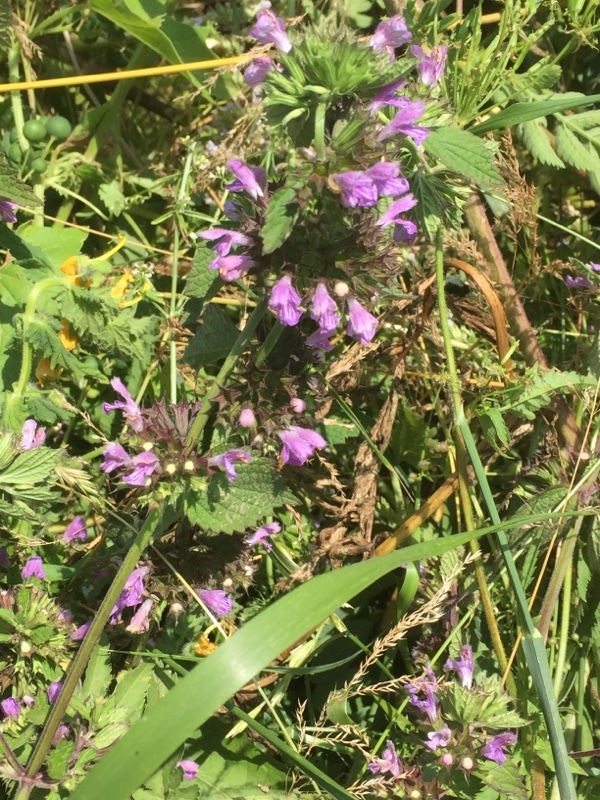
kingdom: Plantae
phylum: Tracheophyta
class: Magnoliopsida
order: Lamiales
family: Lamiaceae
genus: Ballota
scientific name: Ballota nigra
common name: Black horehound
